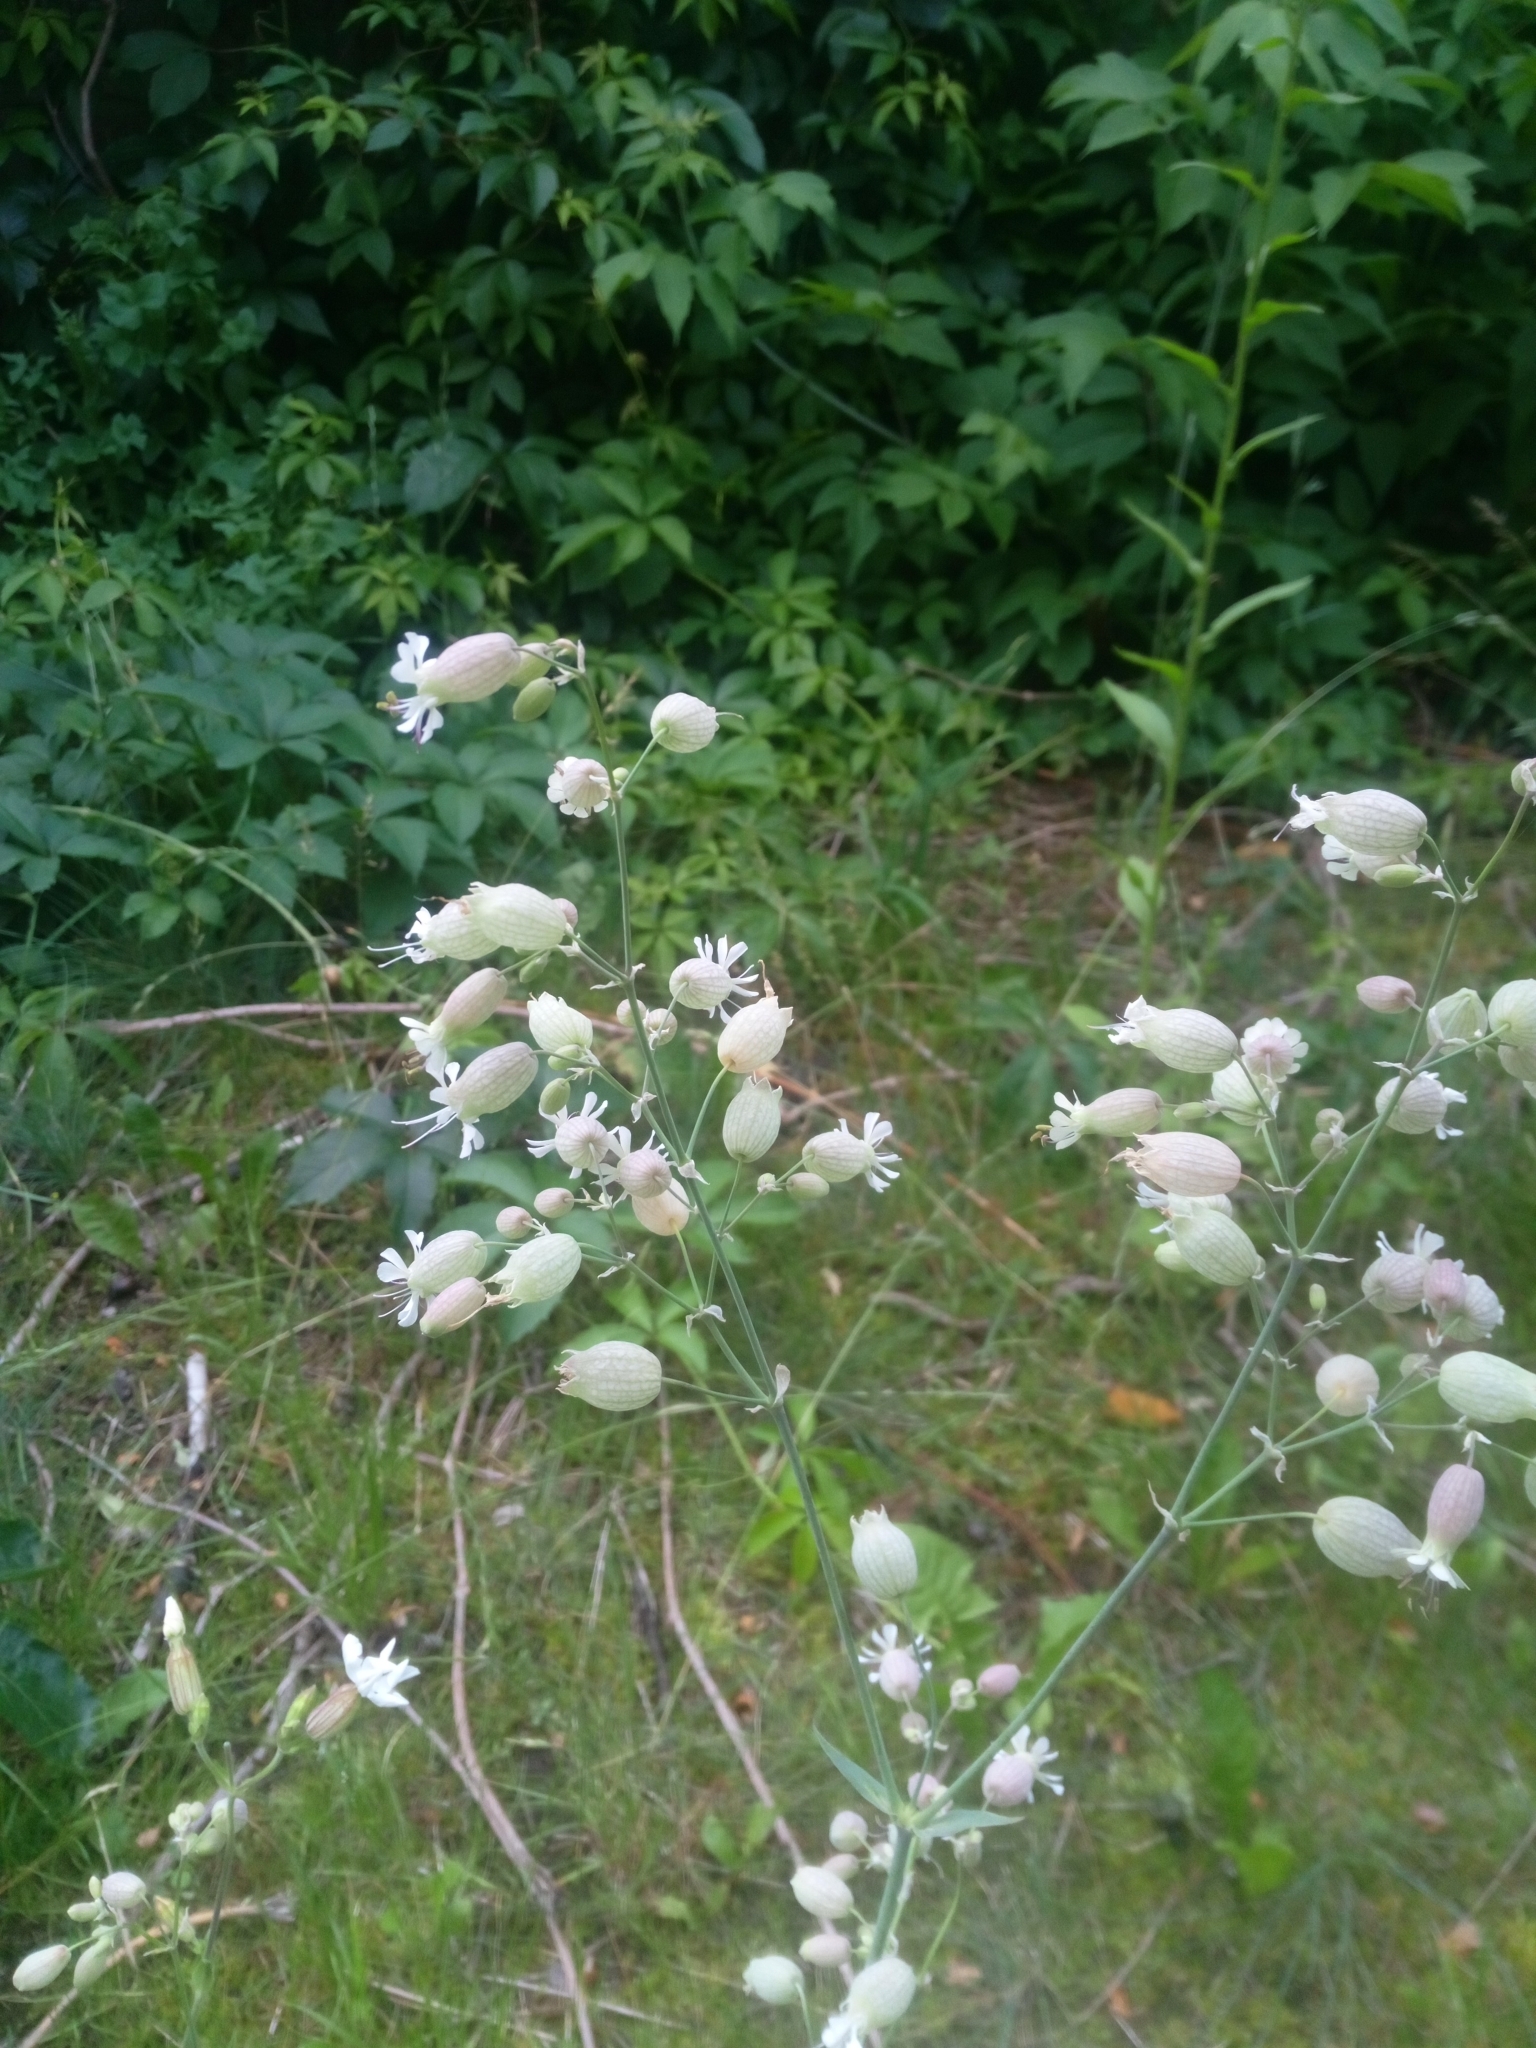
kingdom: Plantae
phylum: Tracheophyta
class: Magnoliopsida
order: Caryophyllales
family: Caryophyllaceae
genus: Silene
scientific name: Silene vulgaris
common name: Bladder campion
